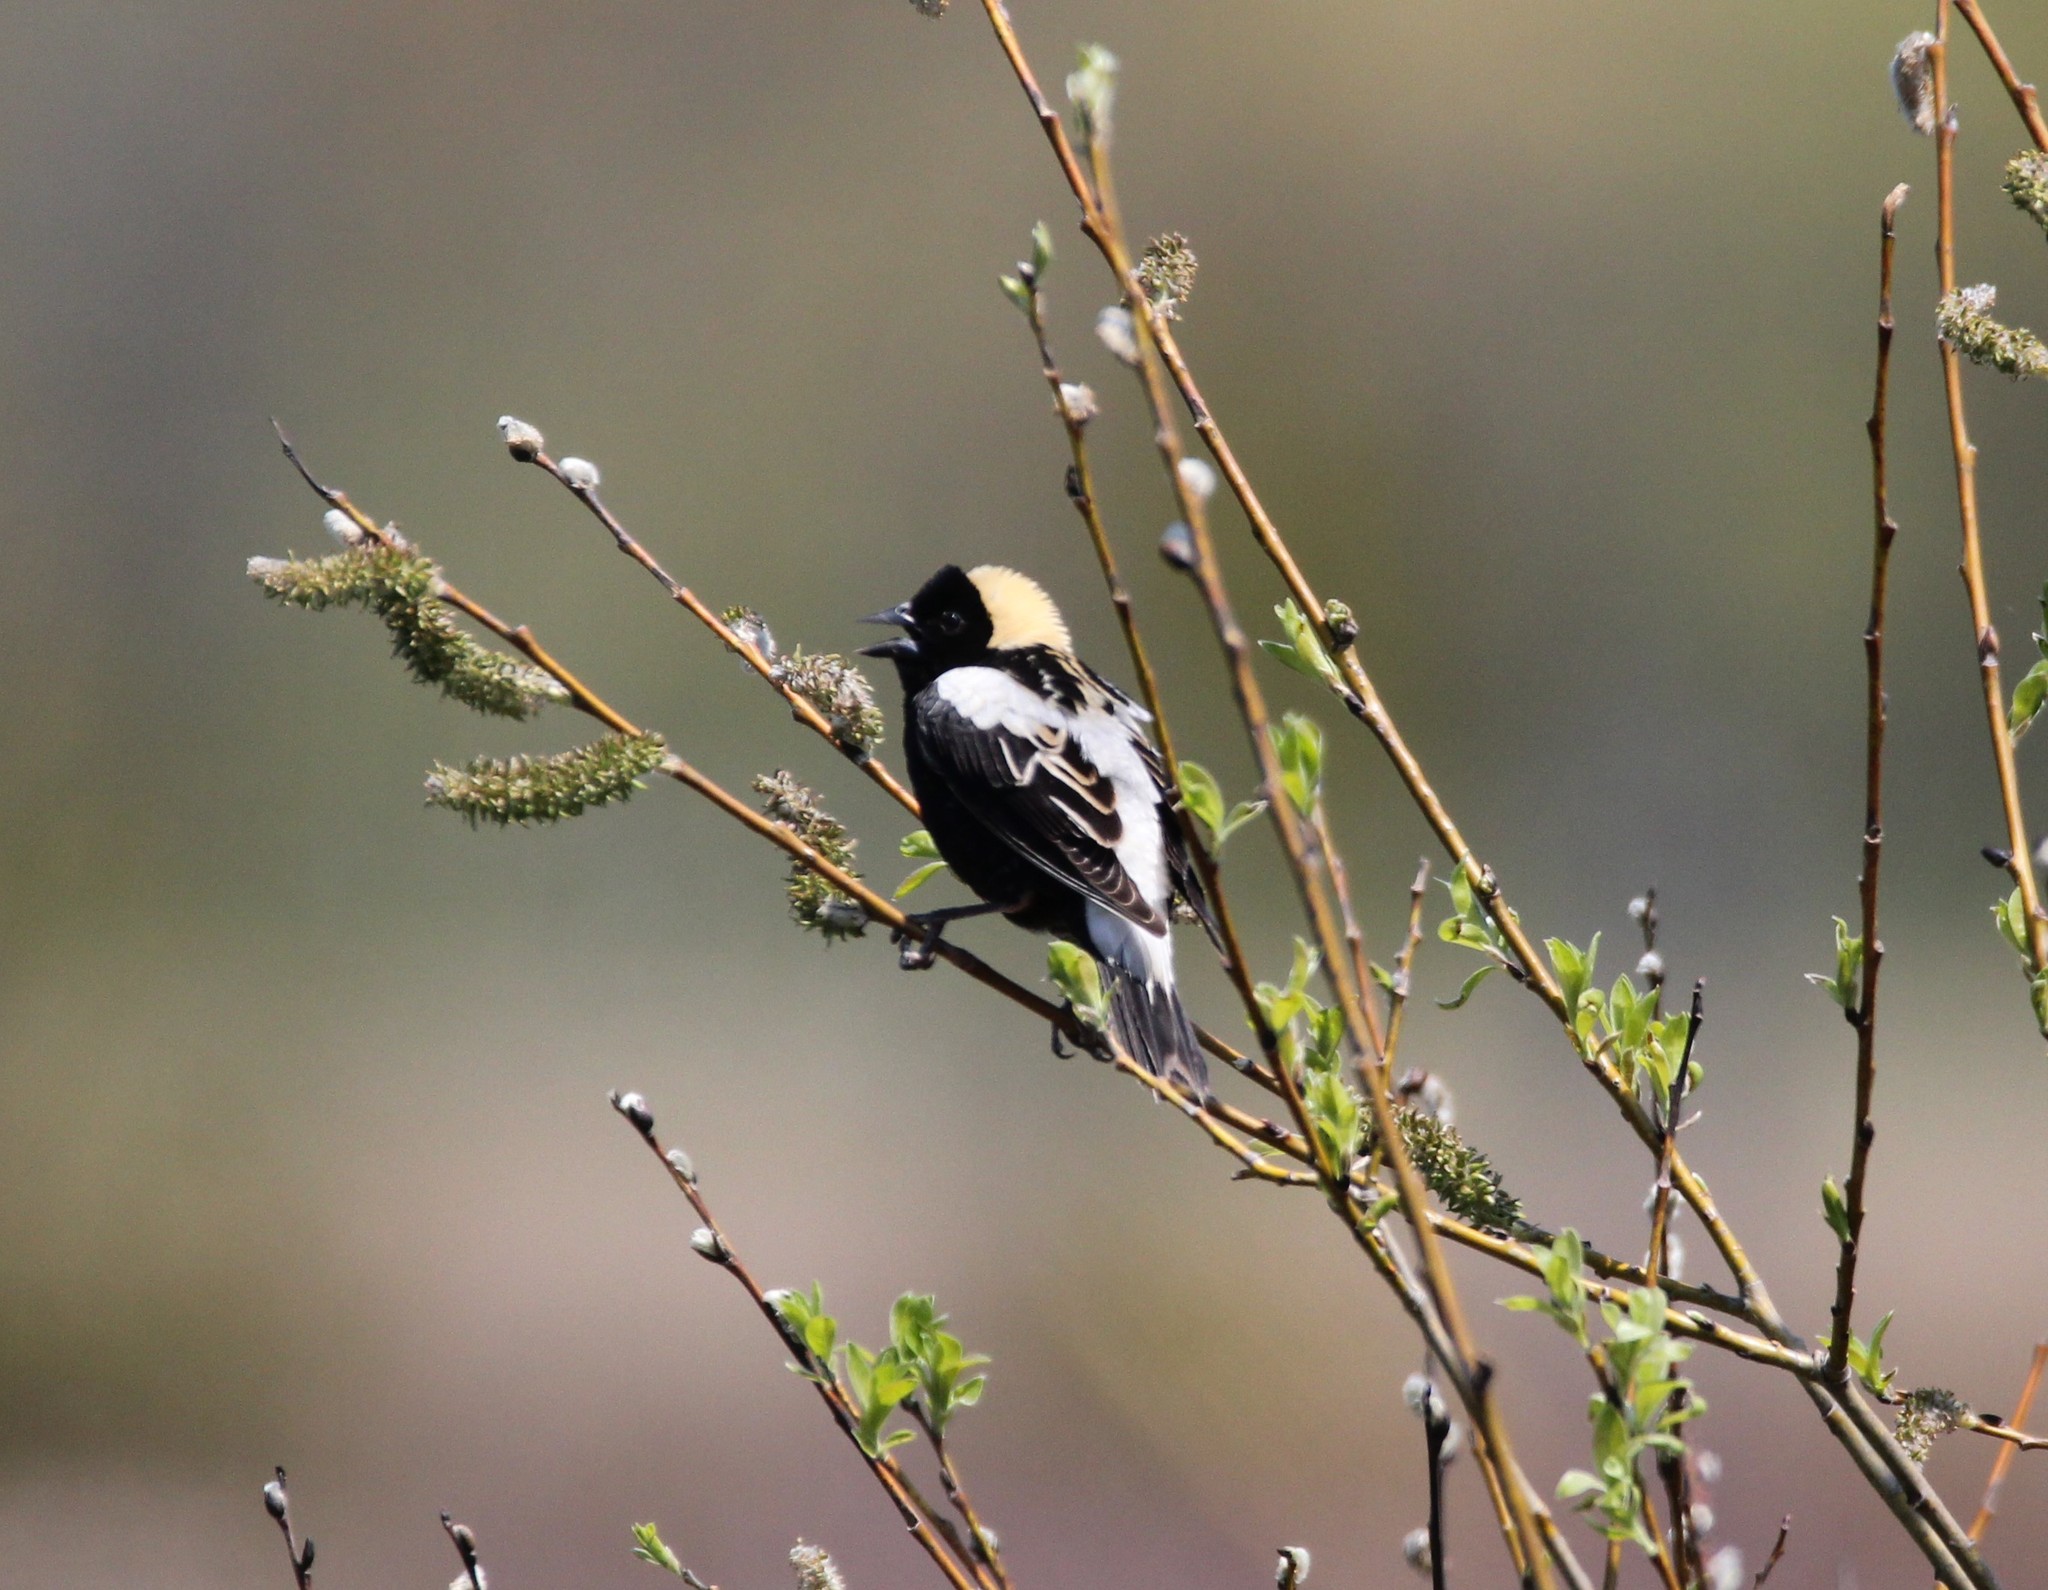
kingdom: Animalia
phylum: Chordata
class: Aves
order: Passeriformes
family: Icteridae
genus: Dolichonyx
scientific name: Dolichonyx oryzivorus
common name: Bobolink
